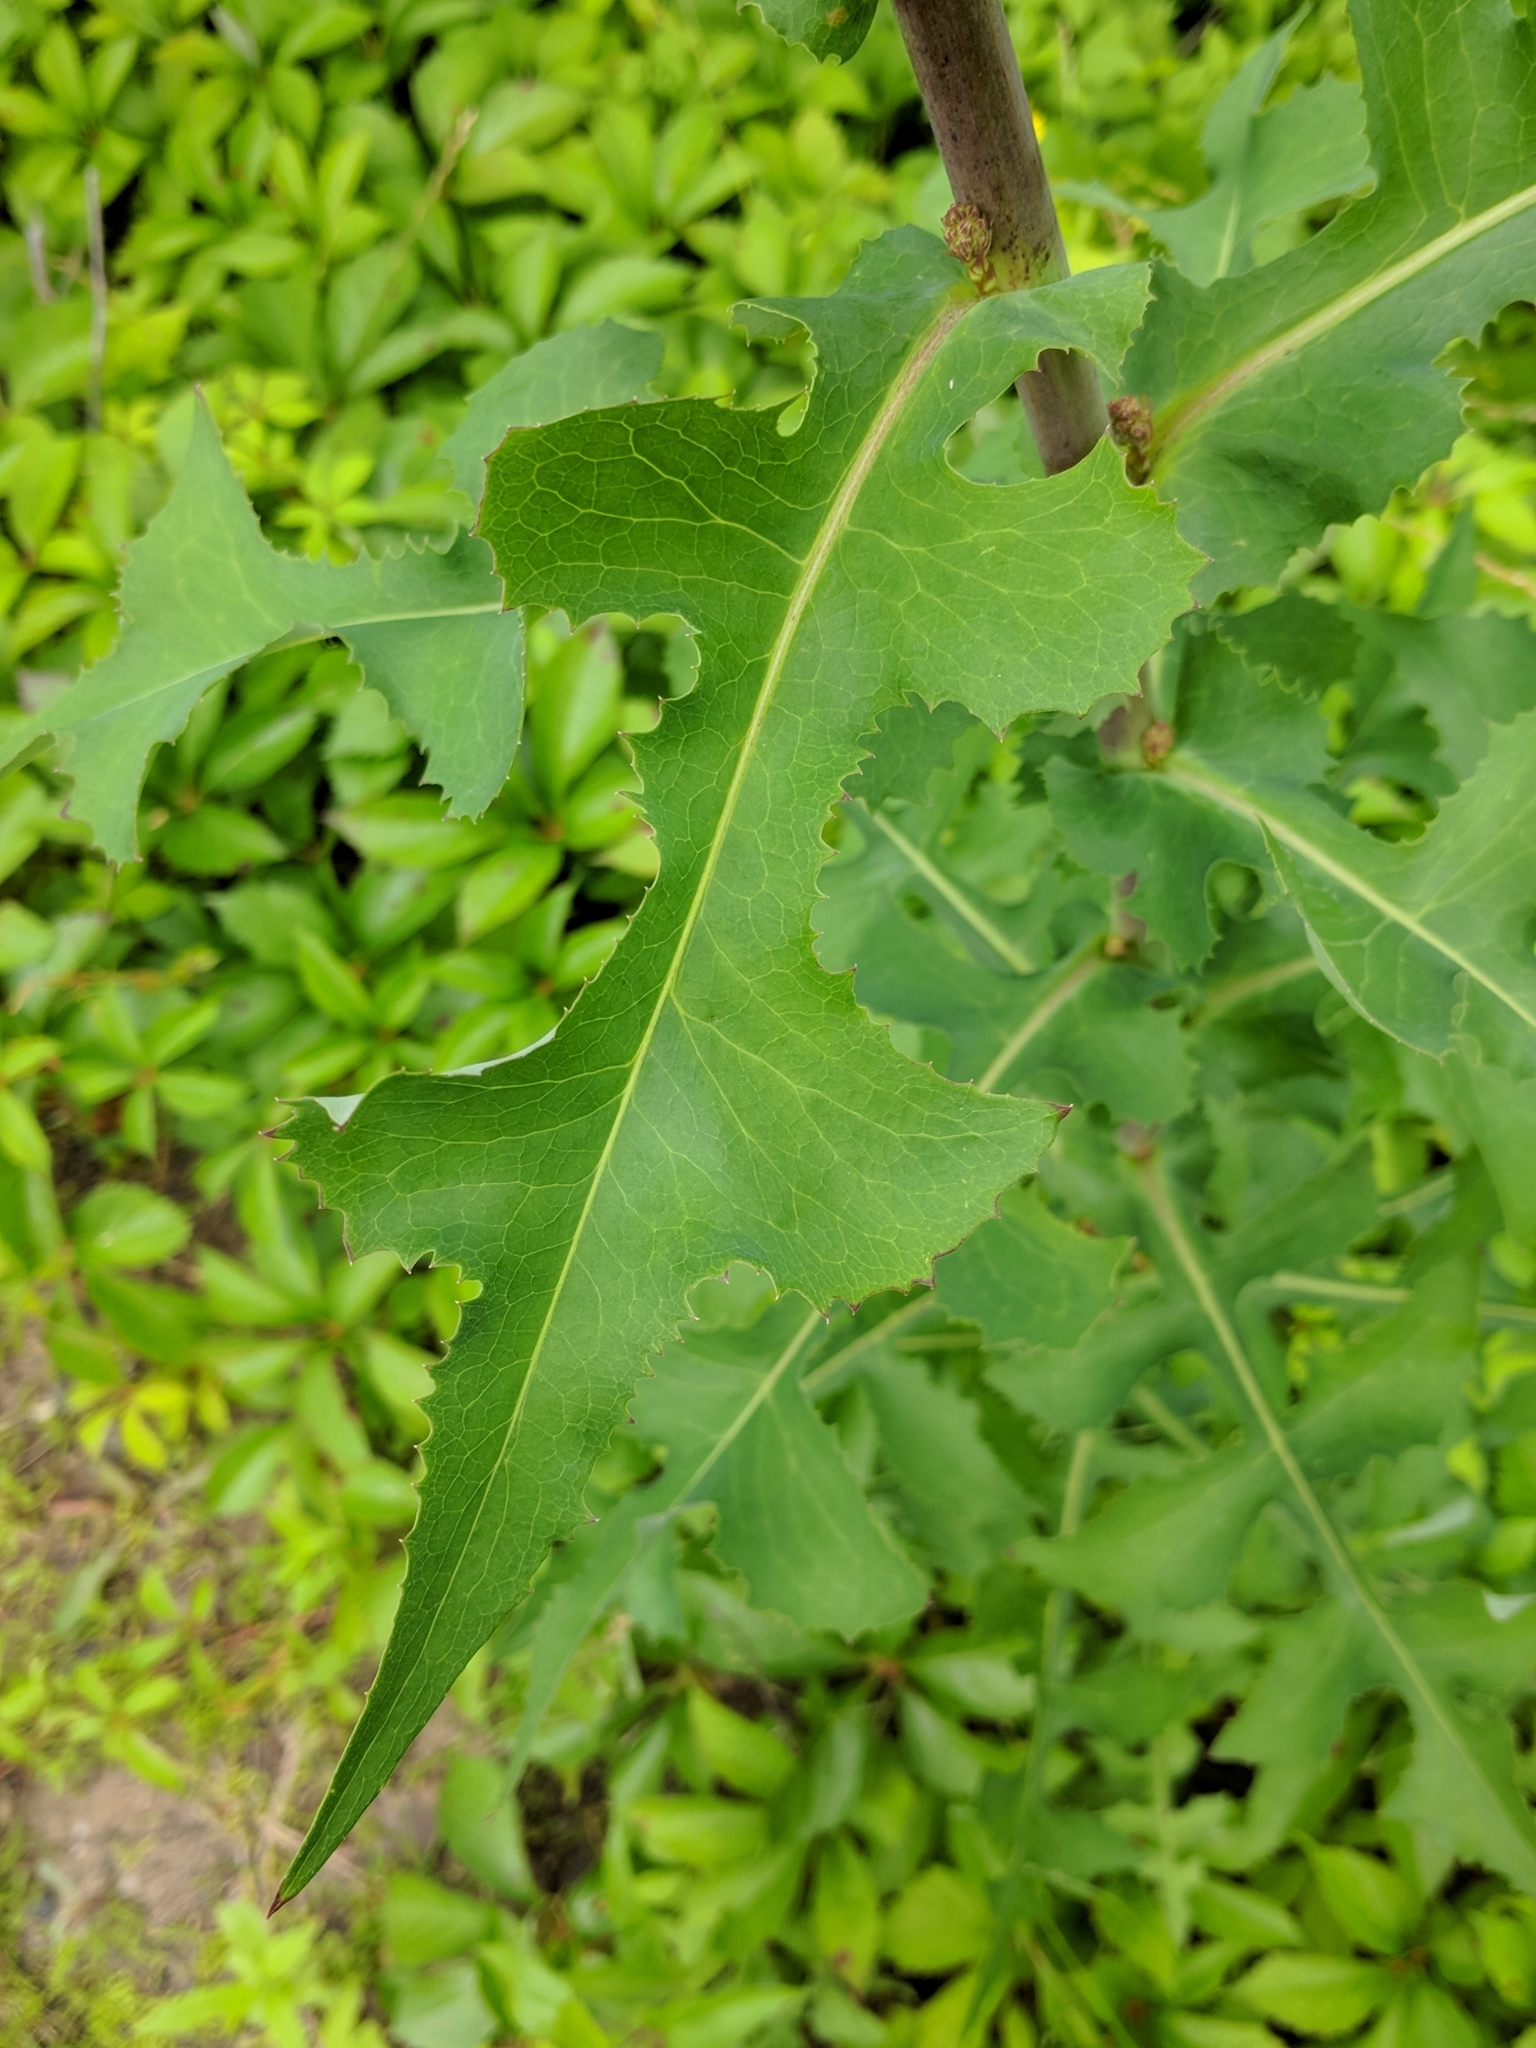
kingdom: Plantae
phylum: Tracheophyta
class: Magnoliopsida
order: Asterales
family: Asteraceae
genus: Lactuca
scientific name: Lactuca serriola
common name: Prickly lettuce
